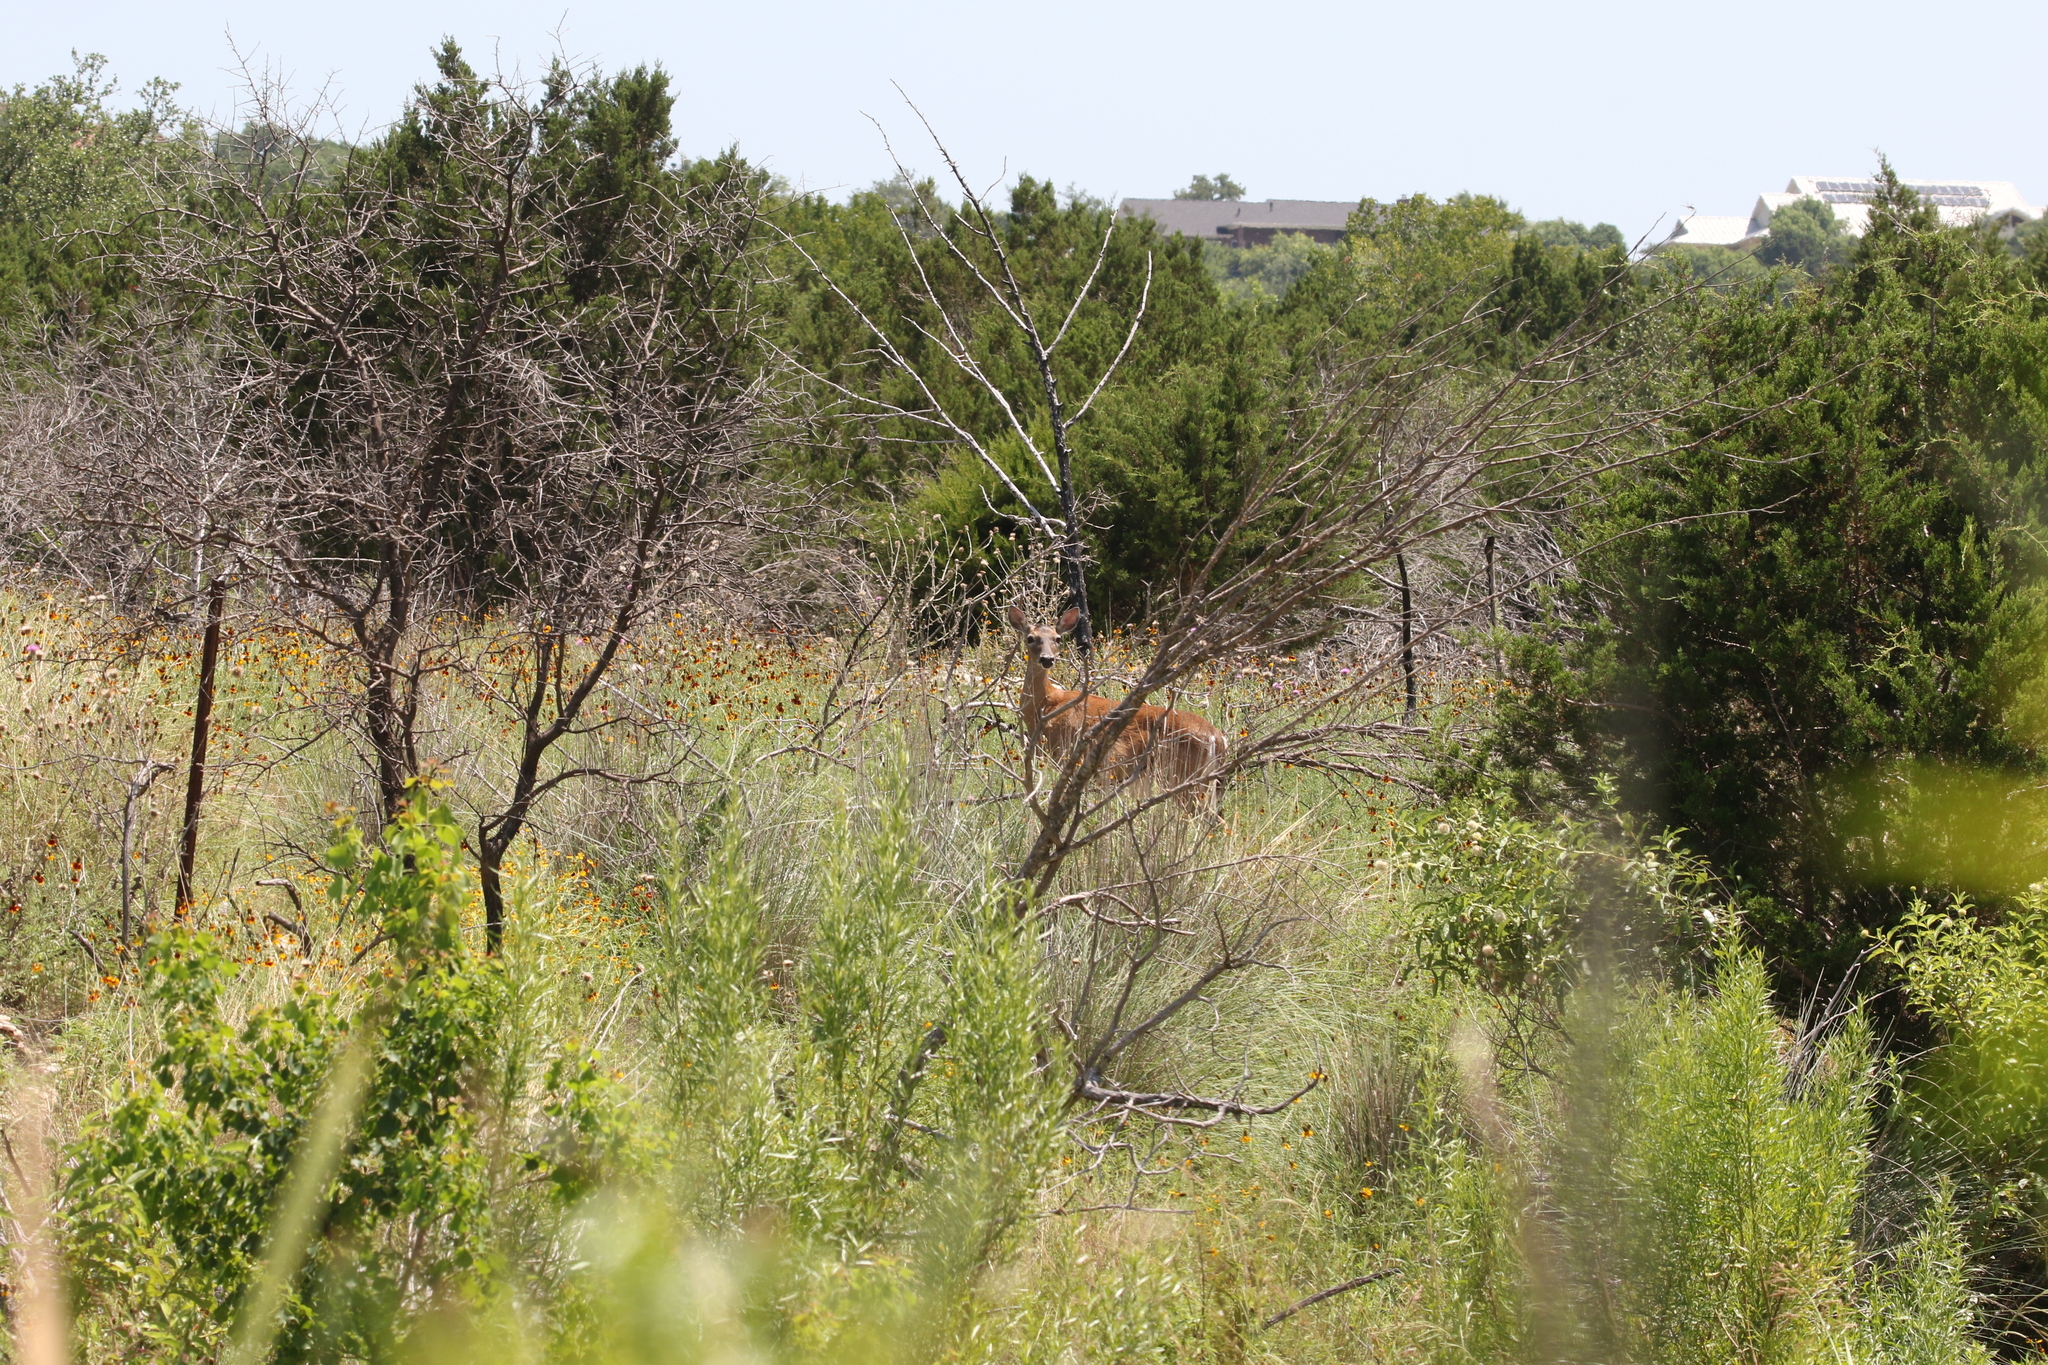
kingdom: Animalia
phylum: Chordata
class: Mammalia
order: Artiodactyla
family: Cervidae
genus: Odocoileus
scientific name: Odocoileus virginianus
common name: White-tailed deer
